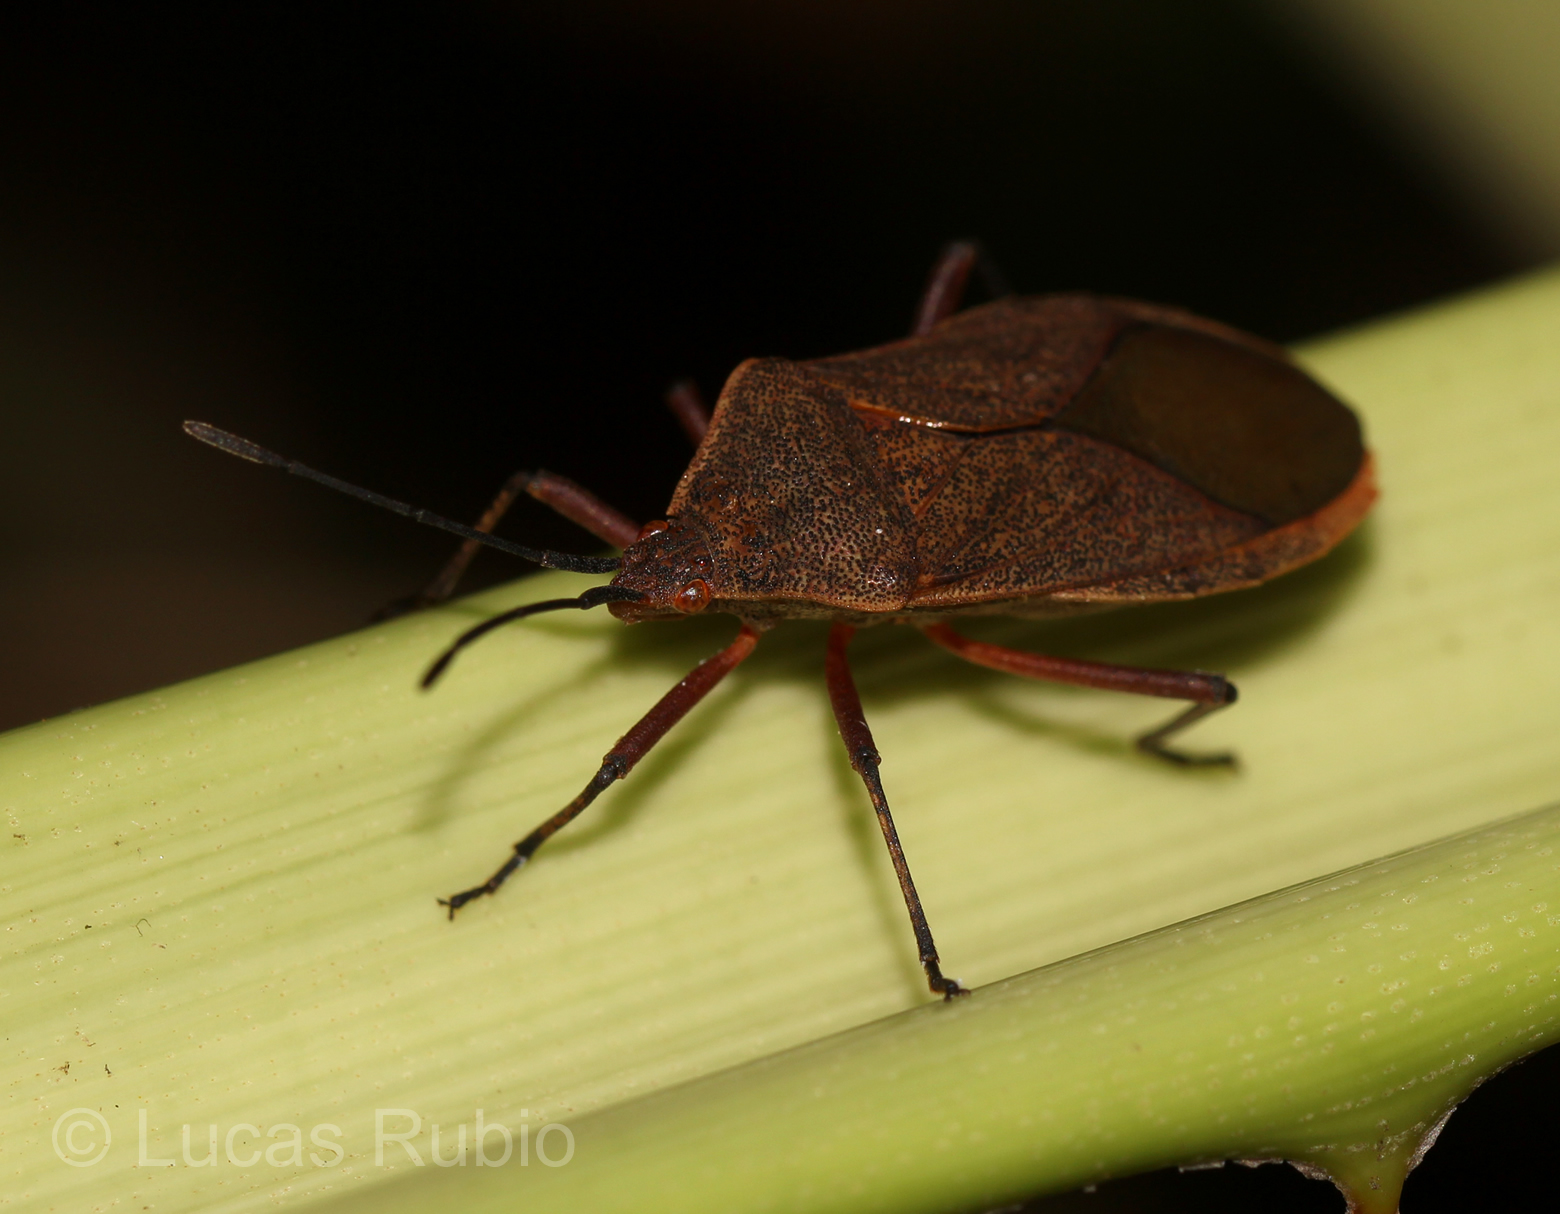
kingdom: Animalia
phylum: Arthropoda
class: Insecta
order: Hemiptera
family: Coreidae
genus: Acidomeria
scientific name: Acidomeria sordida
